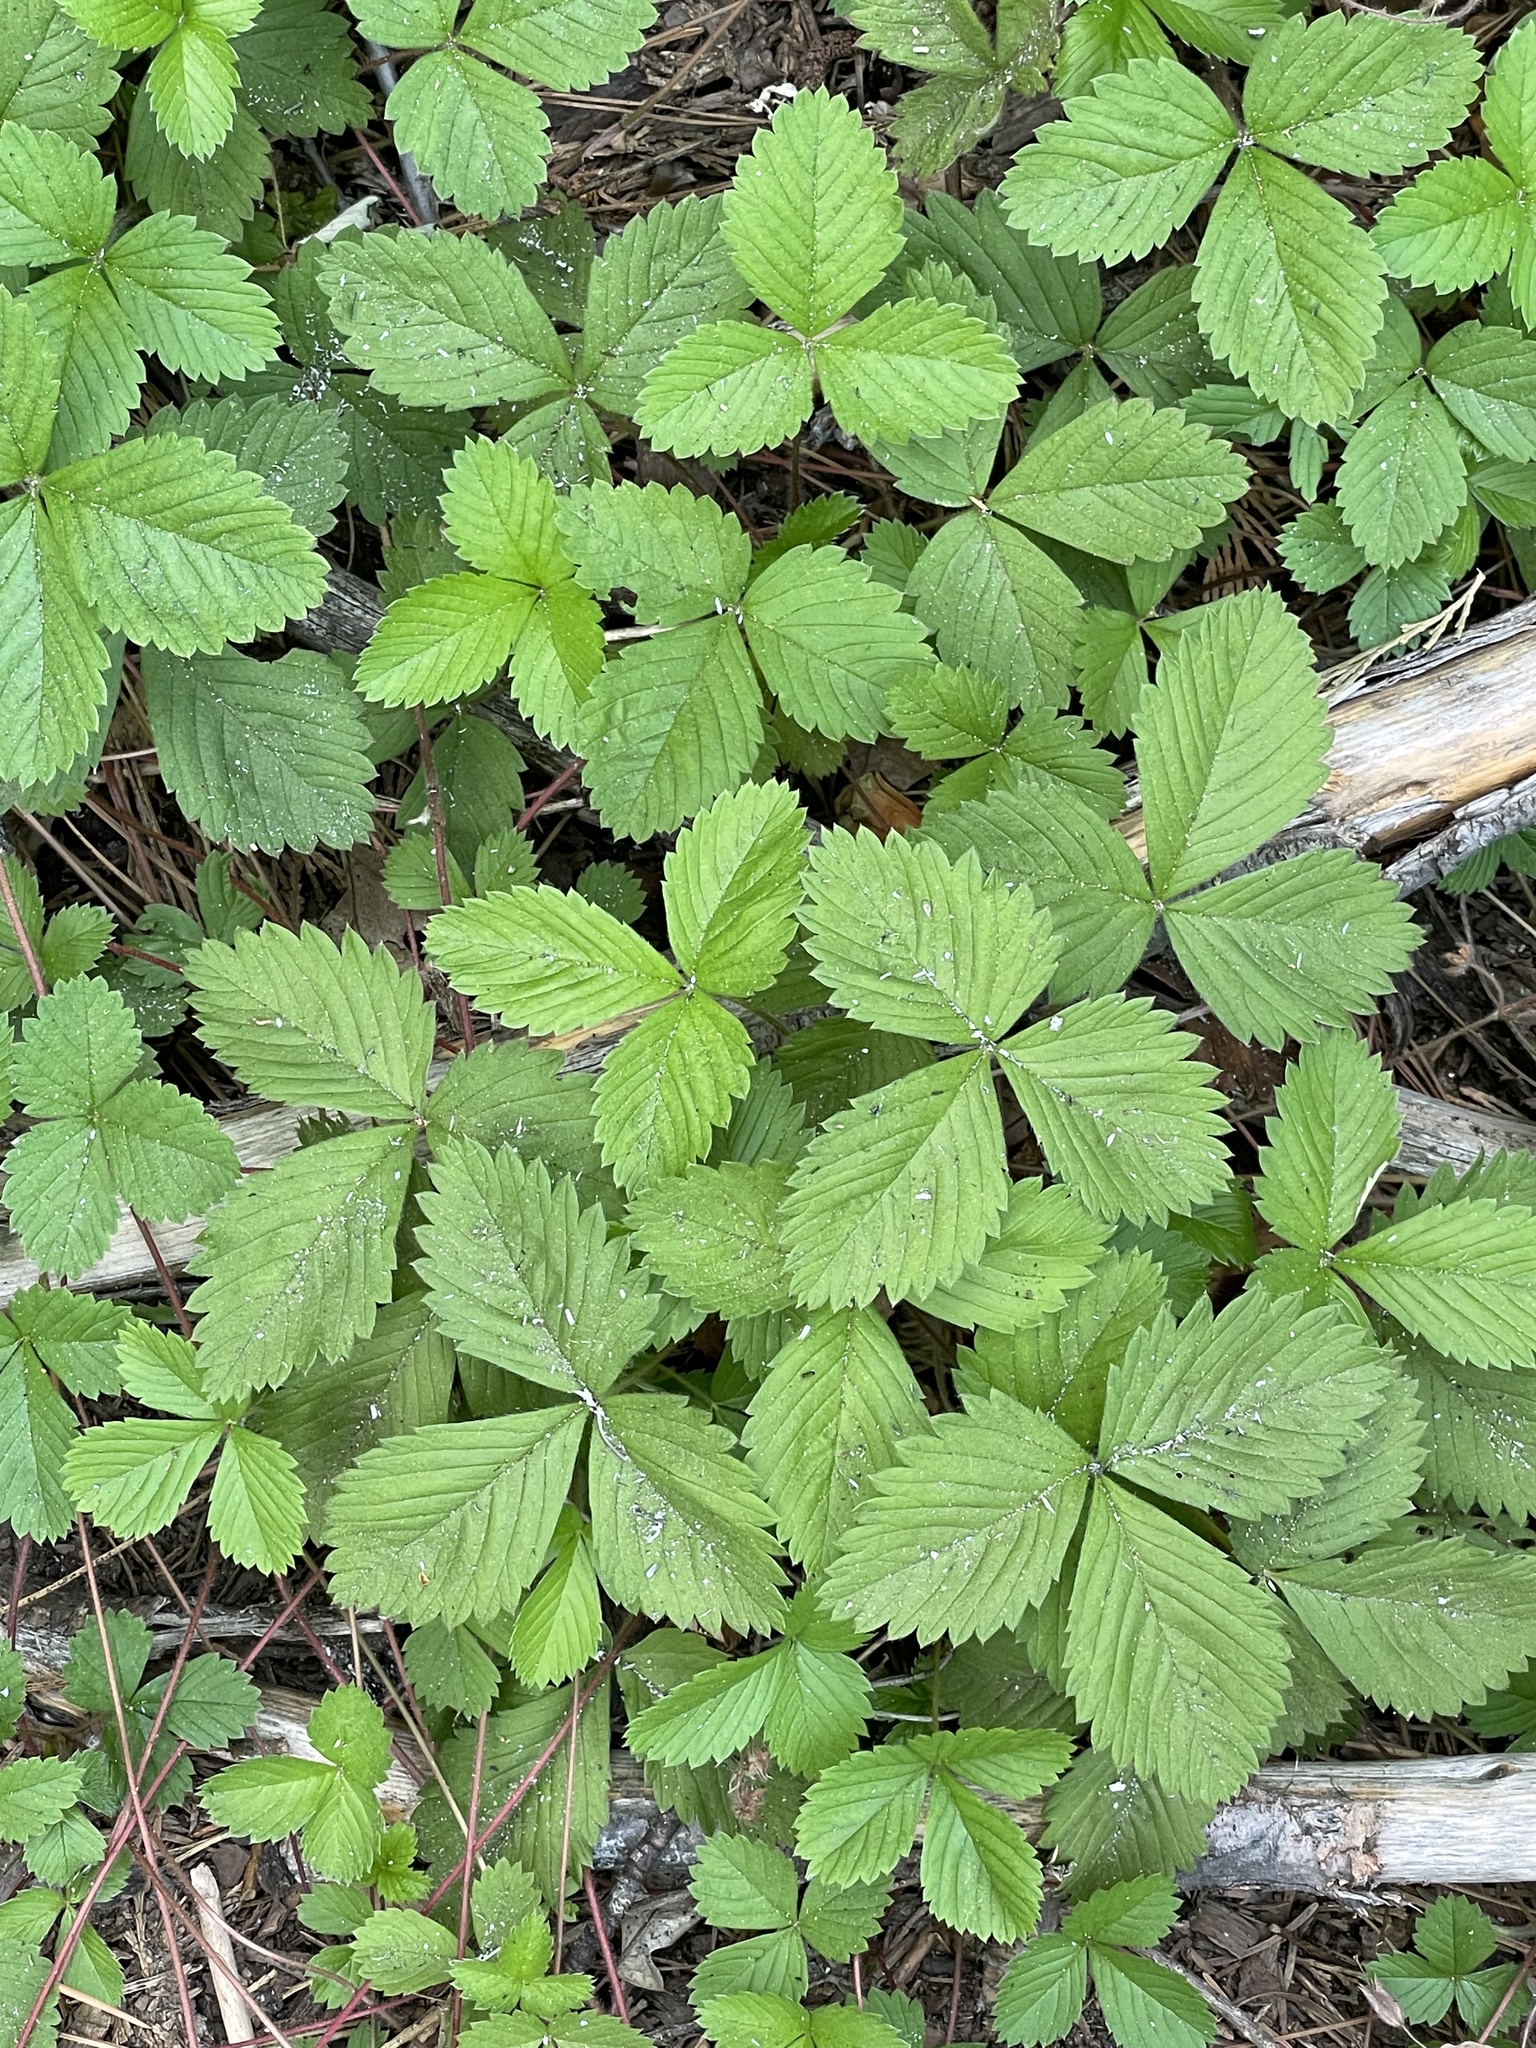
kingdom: Plantae
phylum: Tracheophyta
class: Magnoliopsida
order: Rosales
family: Rosaceae
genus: Fragaria
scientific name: Fragaria vesca
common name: Wild strawberry
